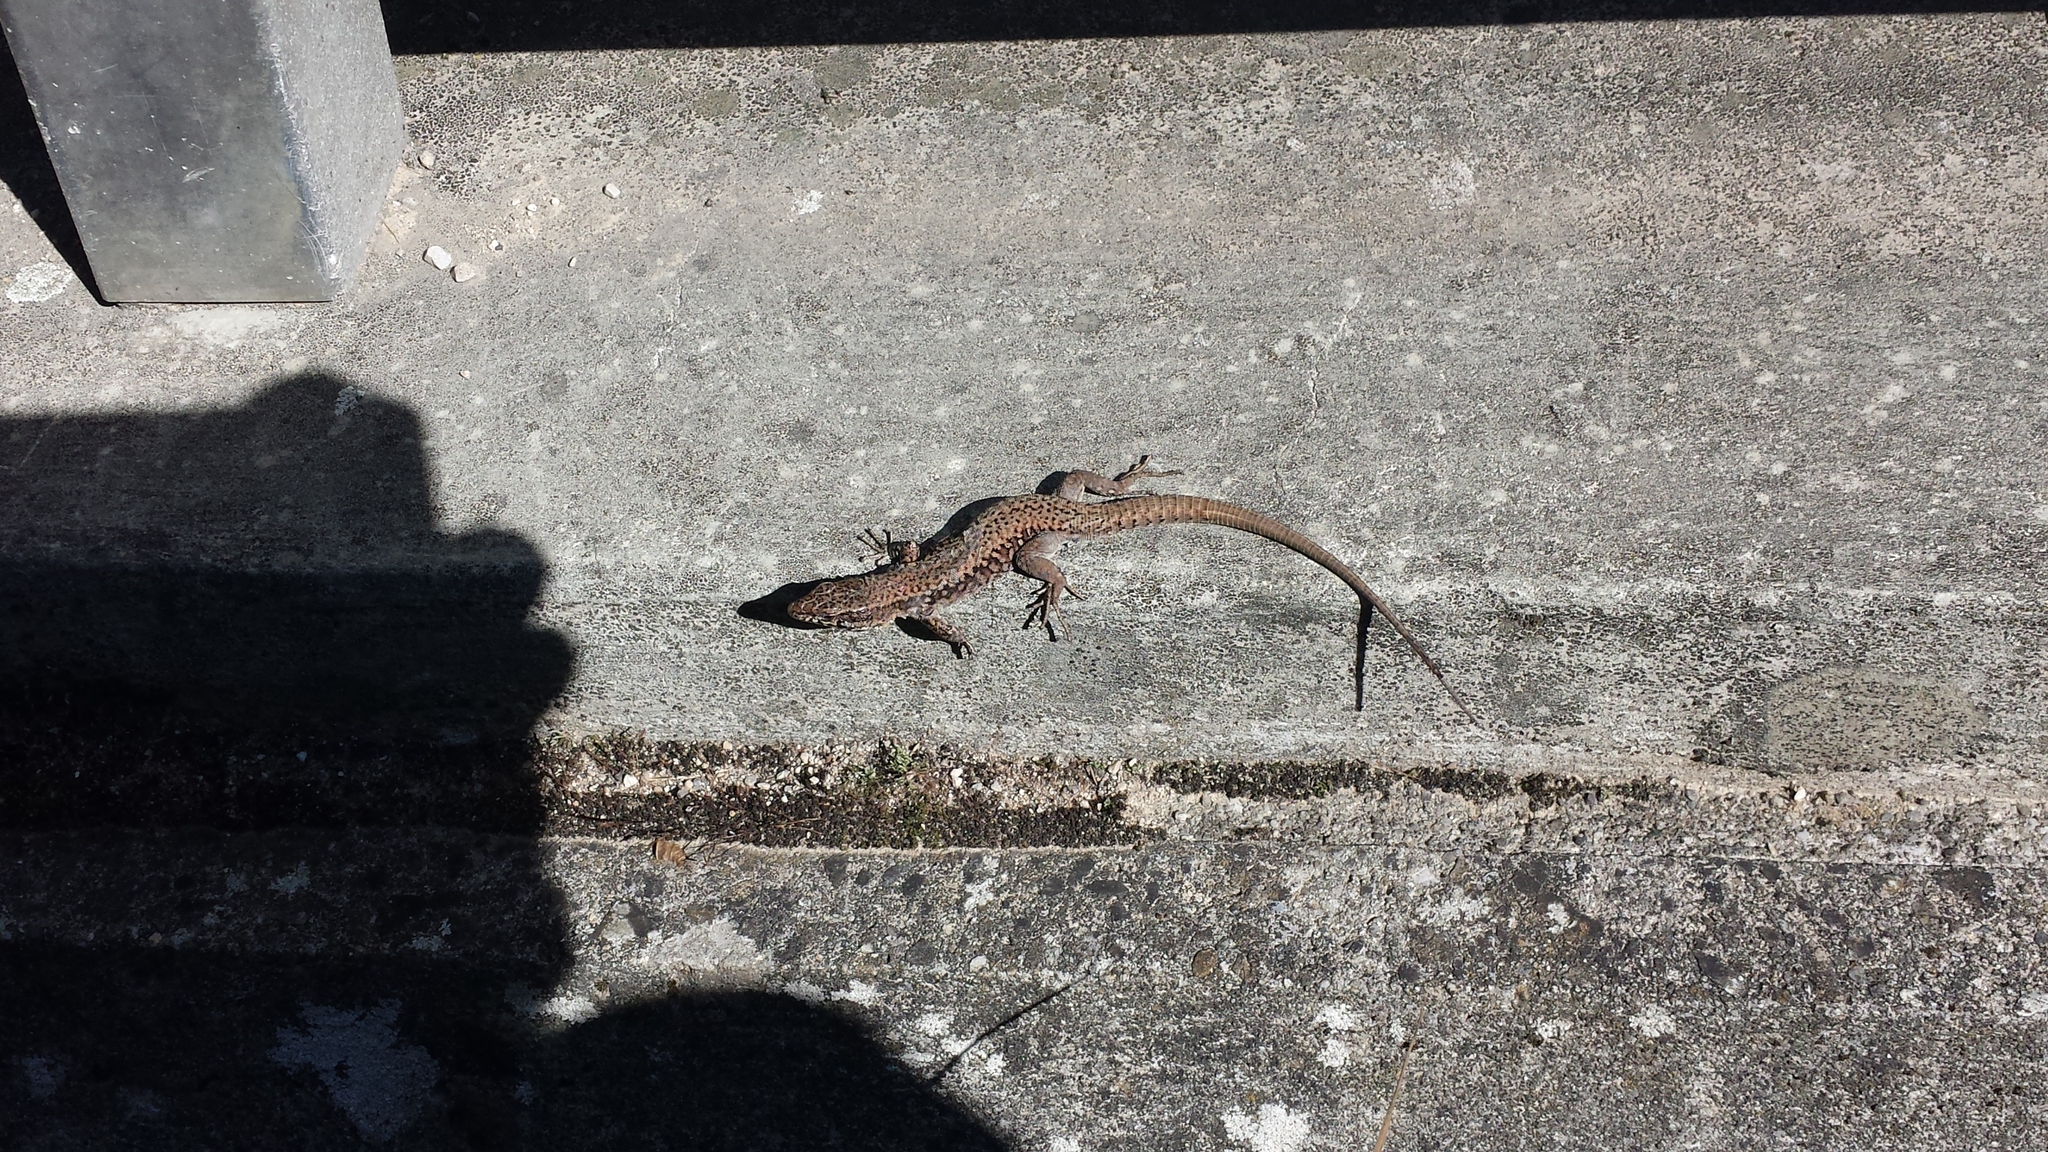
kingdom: Animalia
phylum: Chordata
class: Squamata
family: Lacertidae
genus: Podarcis
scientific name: Podarcis muralis
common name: Common wall lizard
